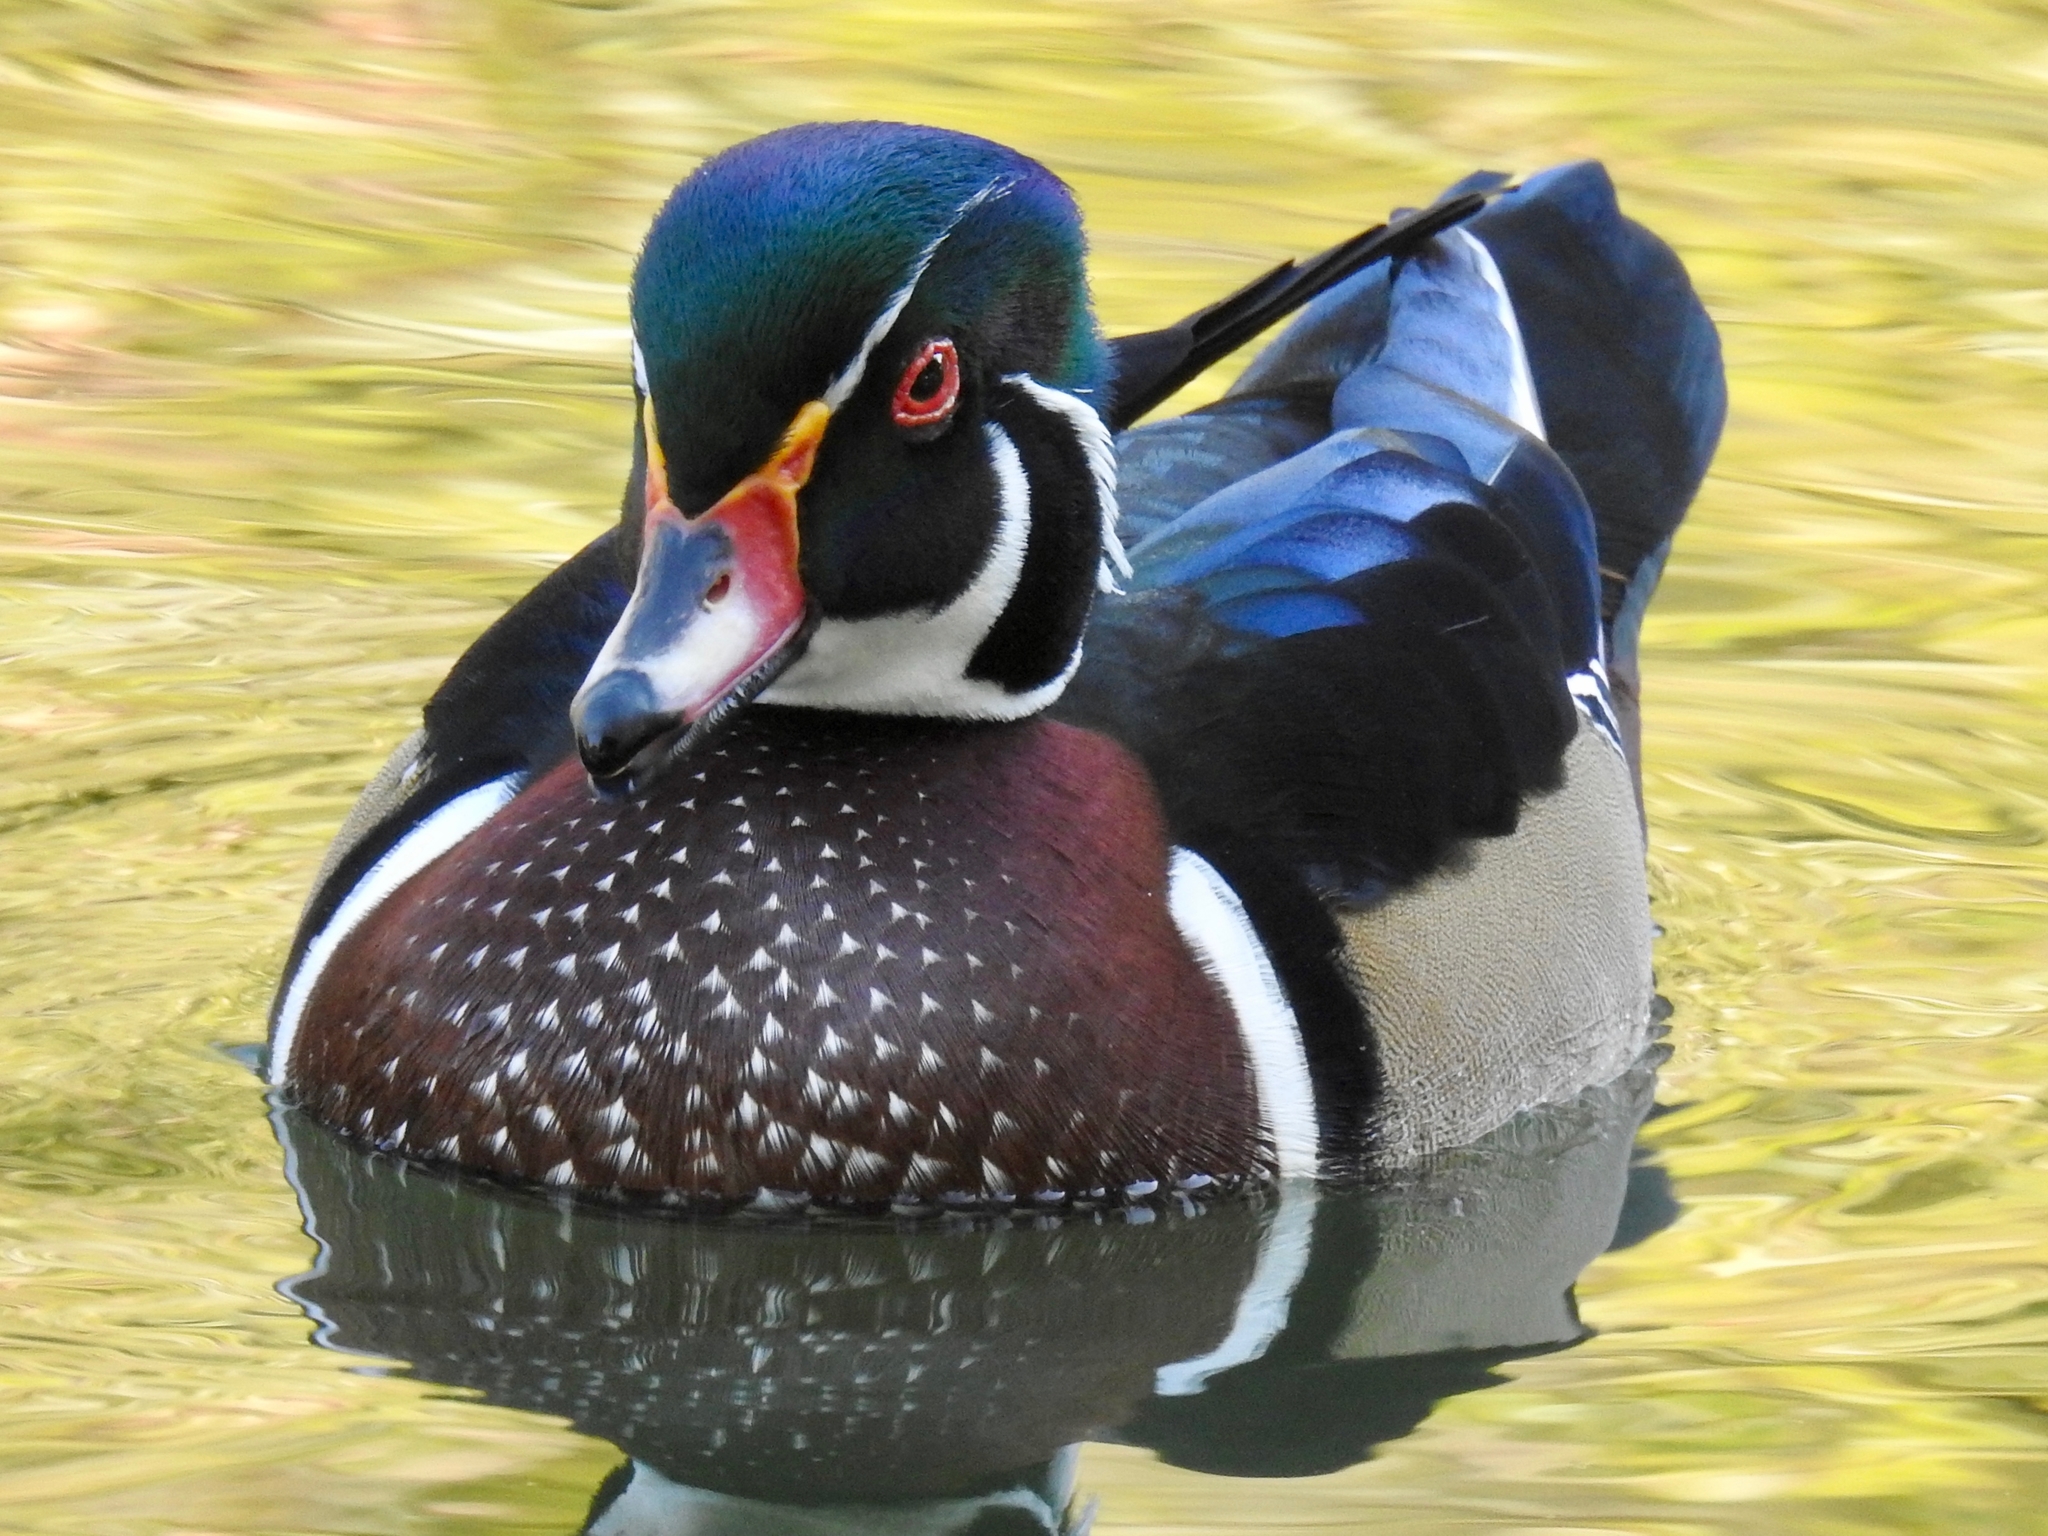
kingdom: Animalia
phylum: Chordata
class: Aves
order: Anseriformes
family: Anatidae
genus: Aix
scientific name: Aix sponsa
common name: Wood duck
